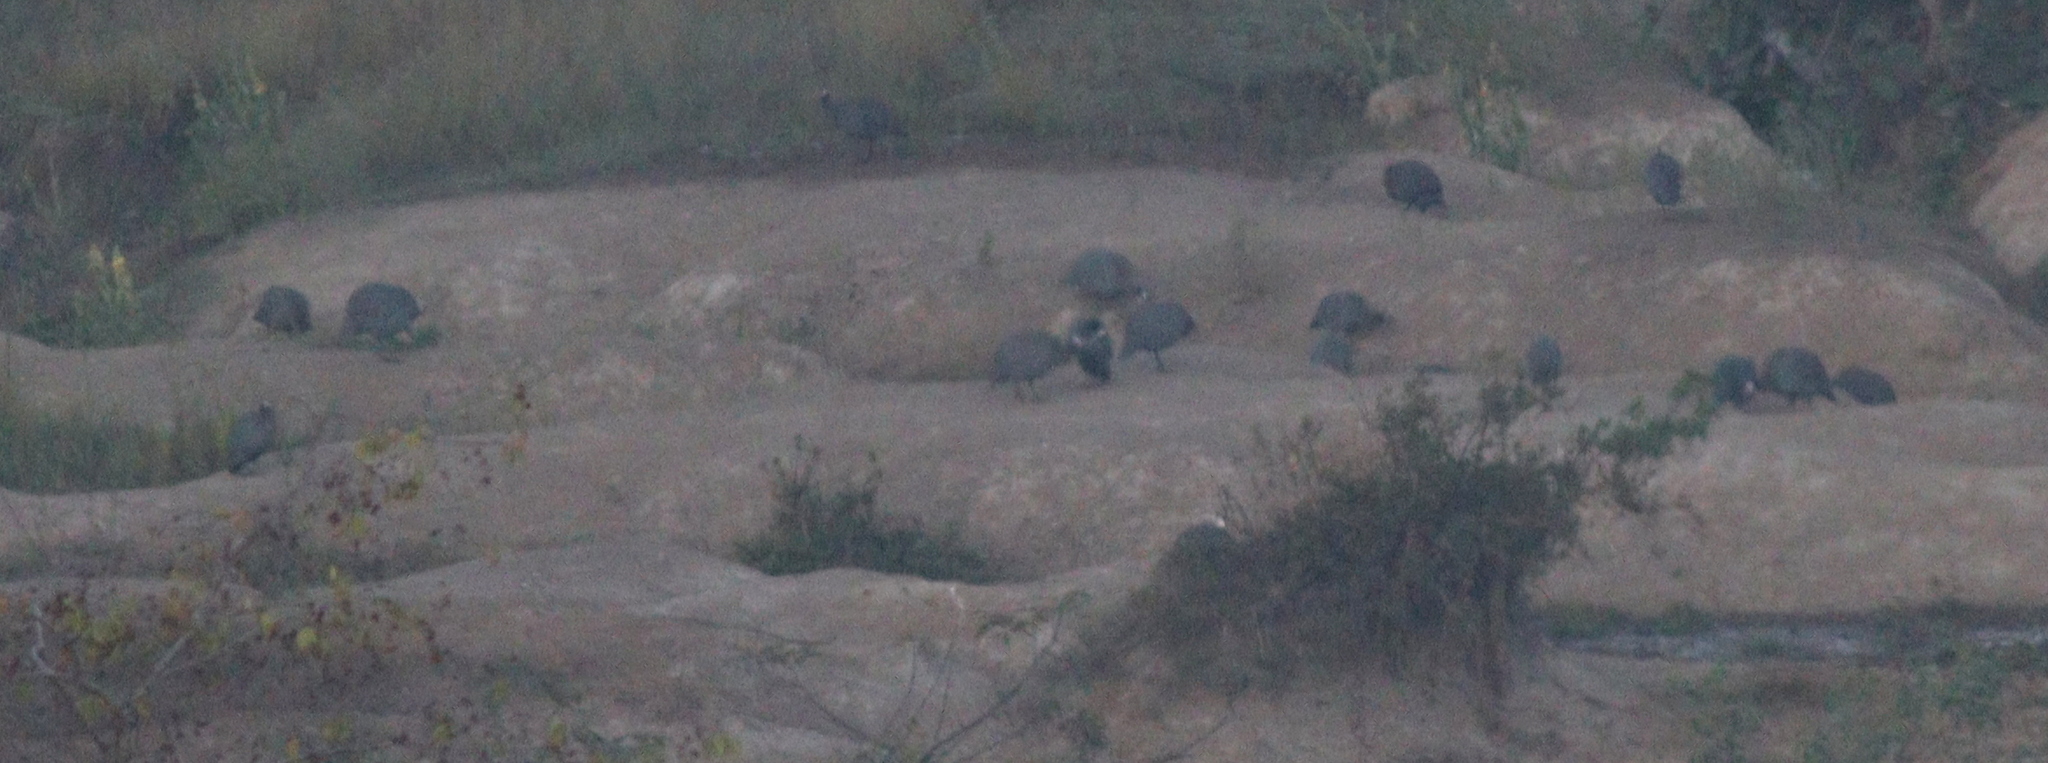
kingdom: Animalia
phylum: Chordata
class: Aves
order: Galliformes
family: Numididae
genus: Numida
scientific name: Numida meleagris
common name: Helmeted guineafowl
